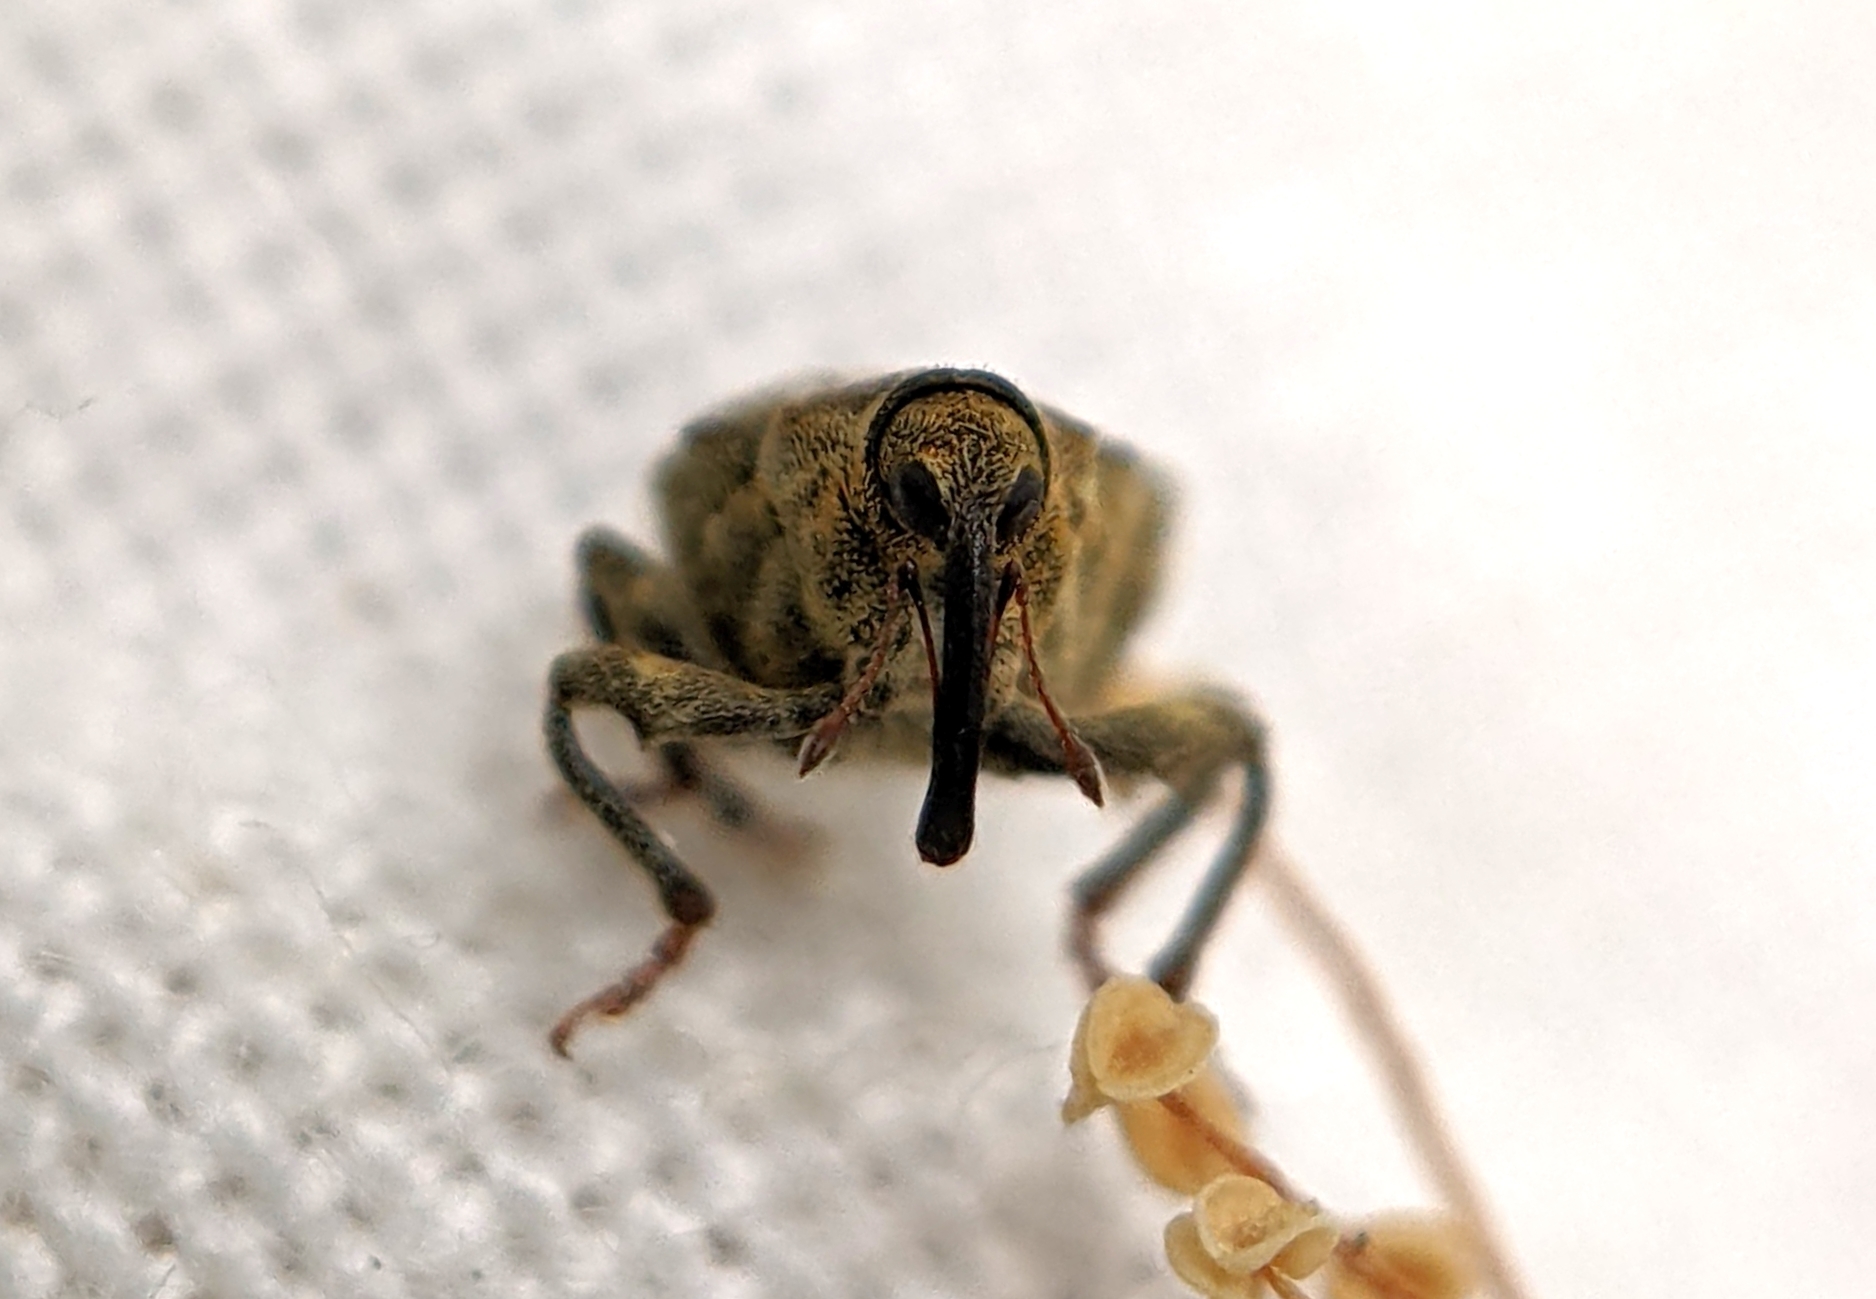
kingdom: Animalia
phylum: Arthropoda
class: Insecta
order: Coleoptera
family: Curculionidae
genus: Parethelcus
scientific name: Parethelcus pollinarius
